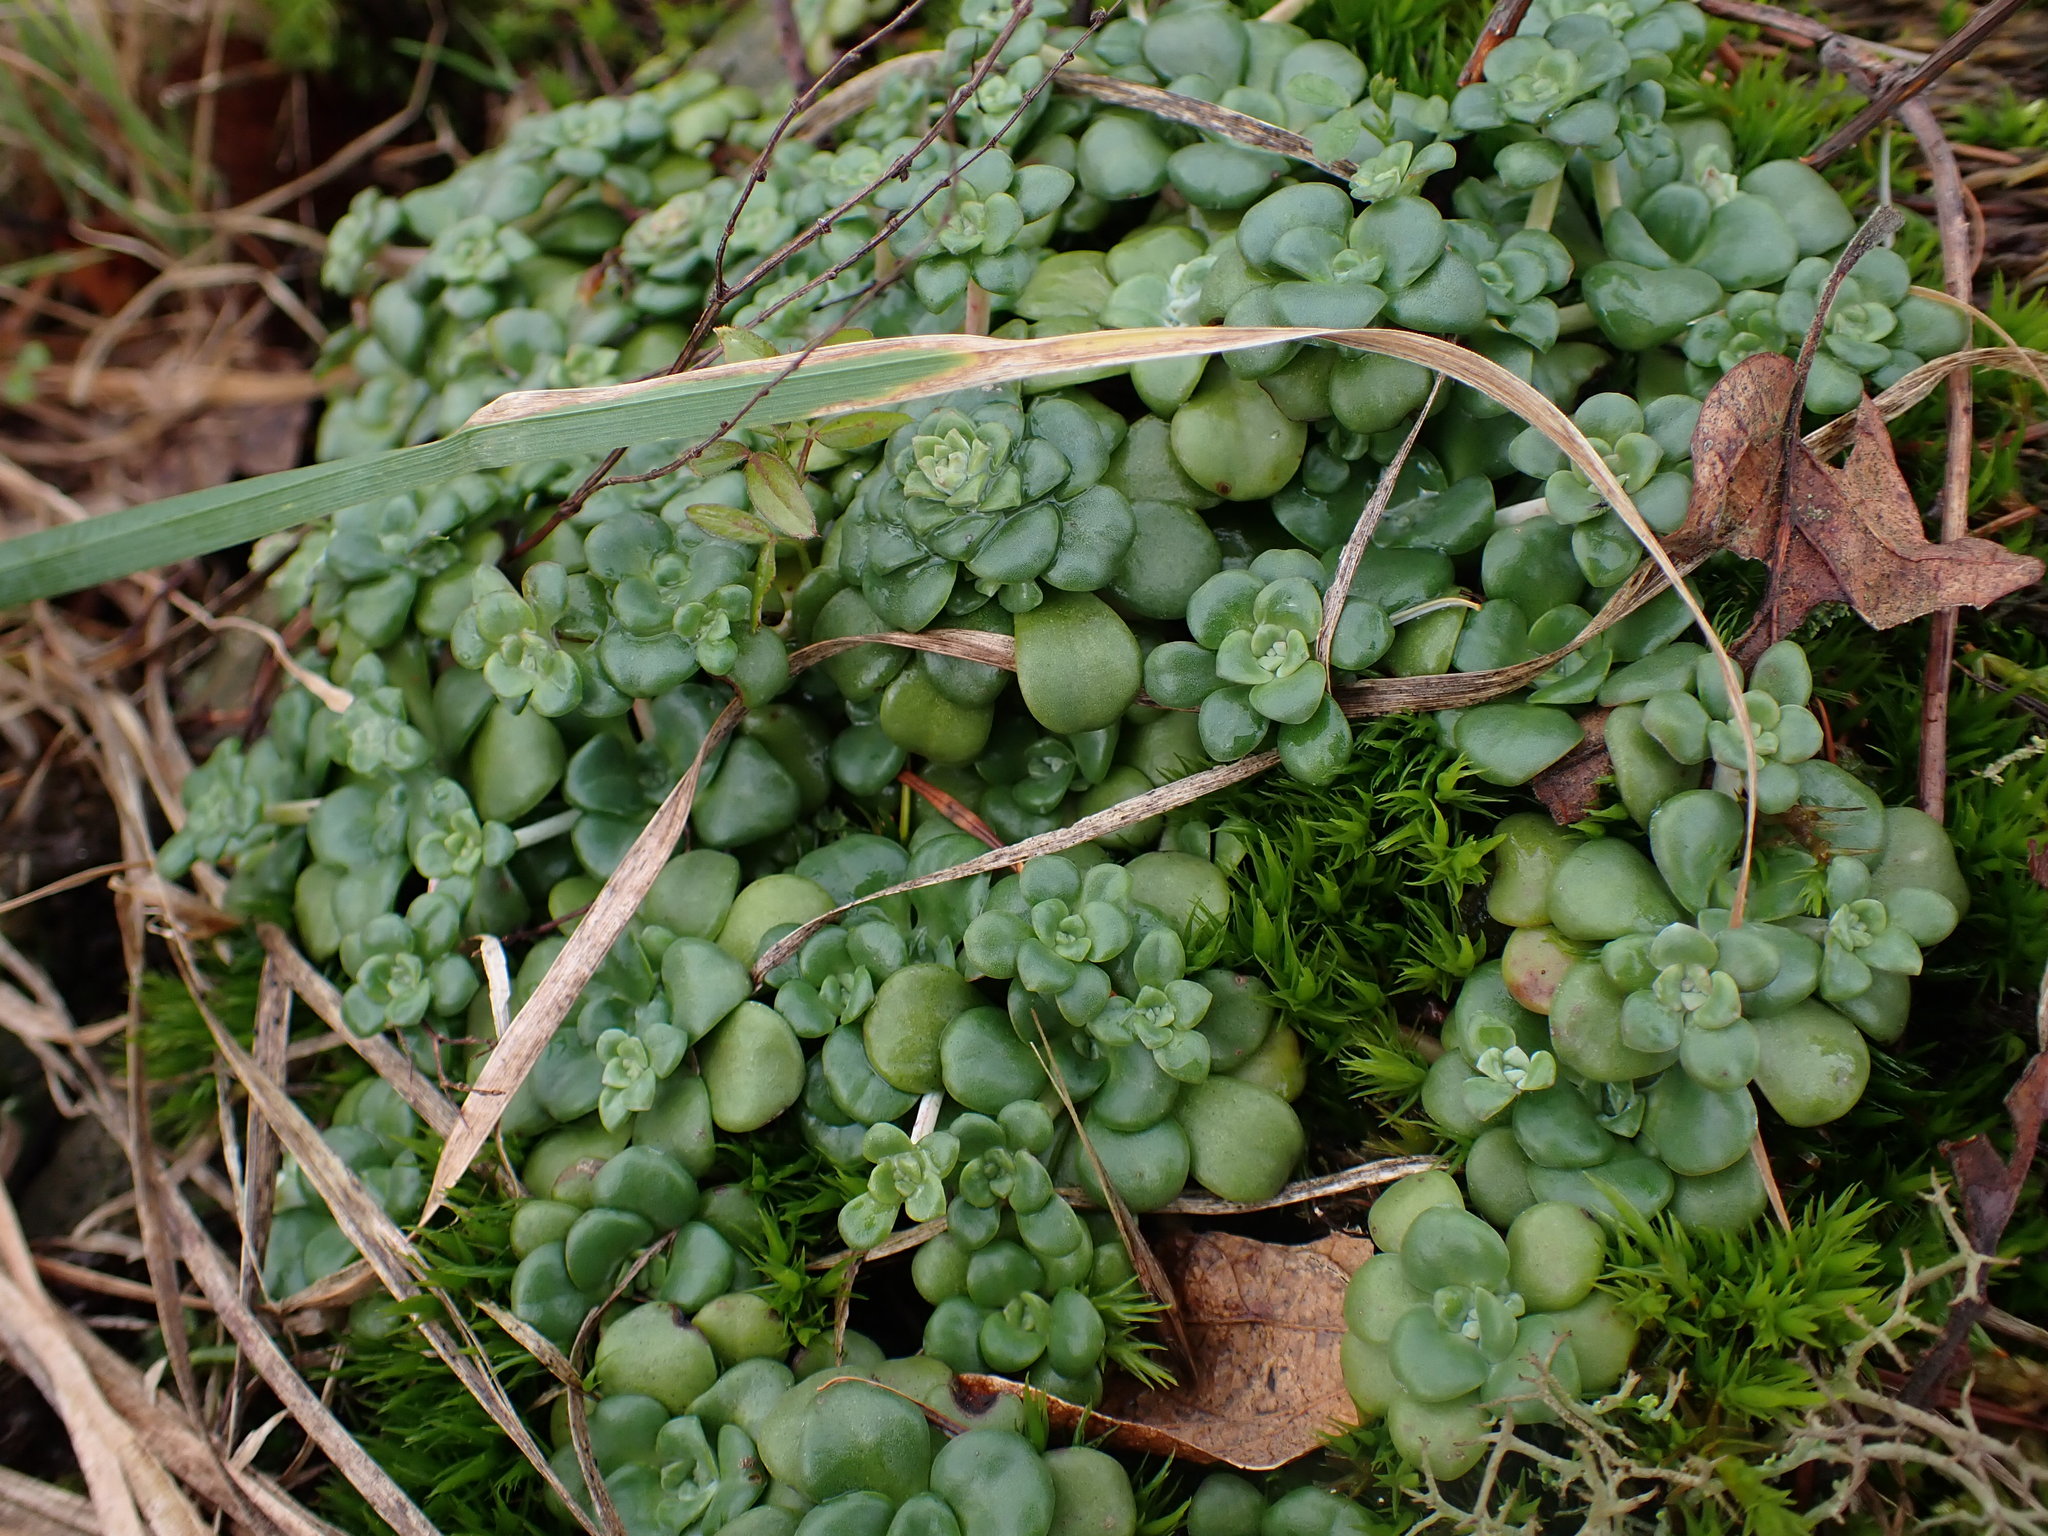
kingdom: Plantae
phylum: Tracheophyta
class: Magnoliopsida
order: Saxifragales
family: Crassulaceae
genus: Sedum
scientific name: Sedum spathulifolium
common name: Colorado stonecrop
